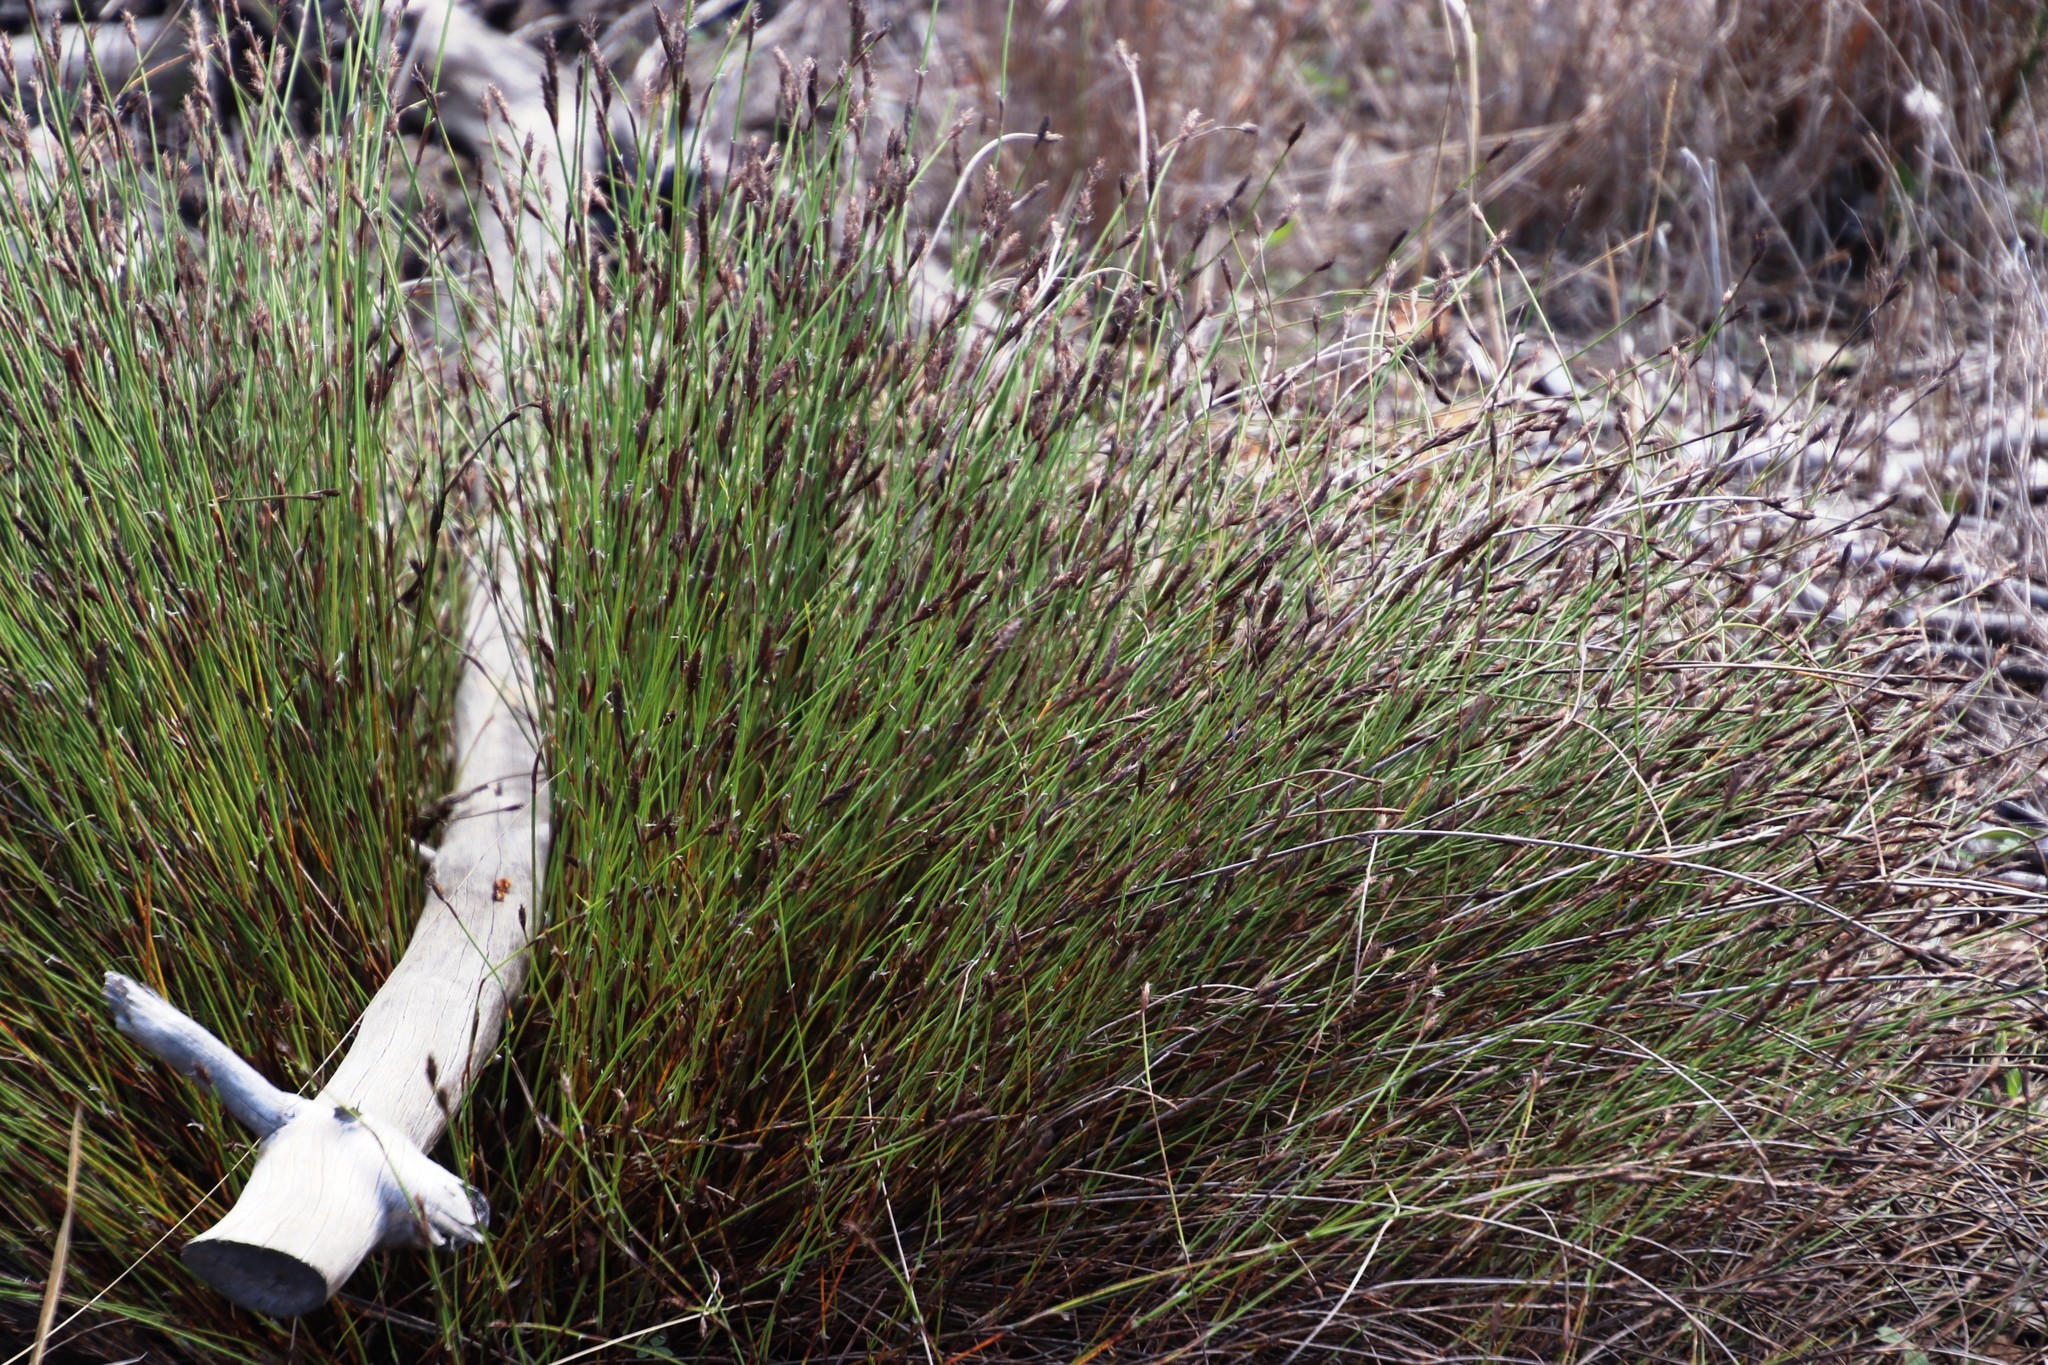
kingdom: Plantae
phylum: Tracheophyta
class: Liliopsida
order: Poales
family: Restionaceae
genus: Restio
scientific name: Restio capensis
